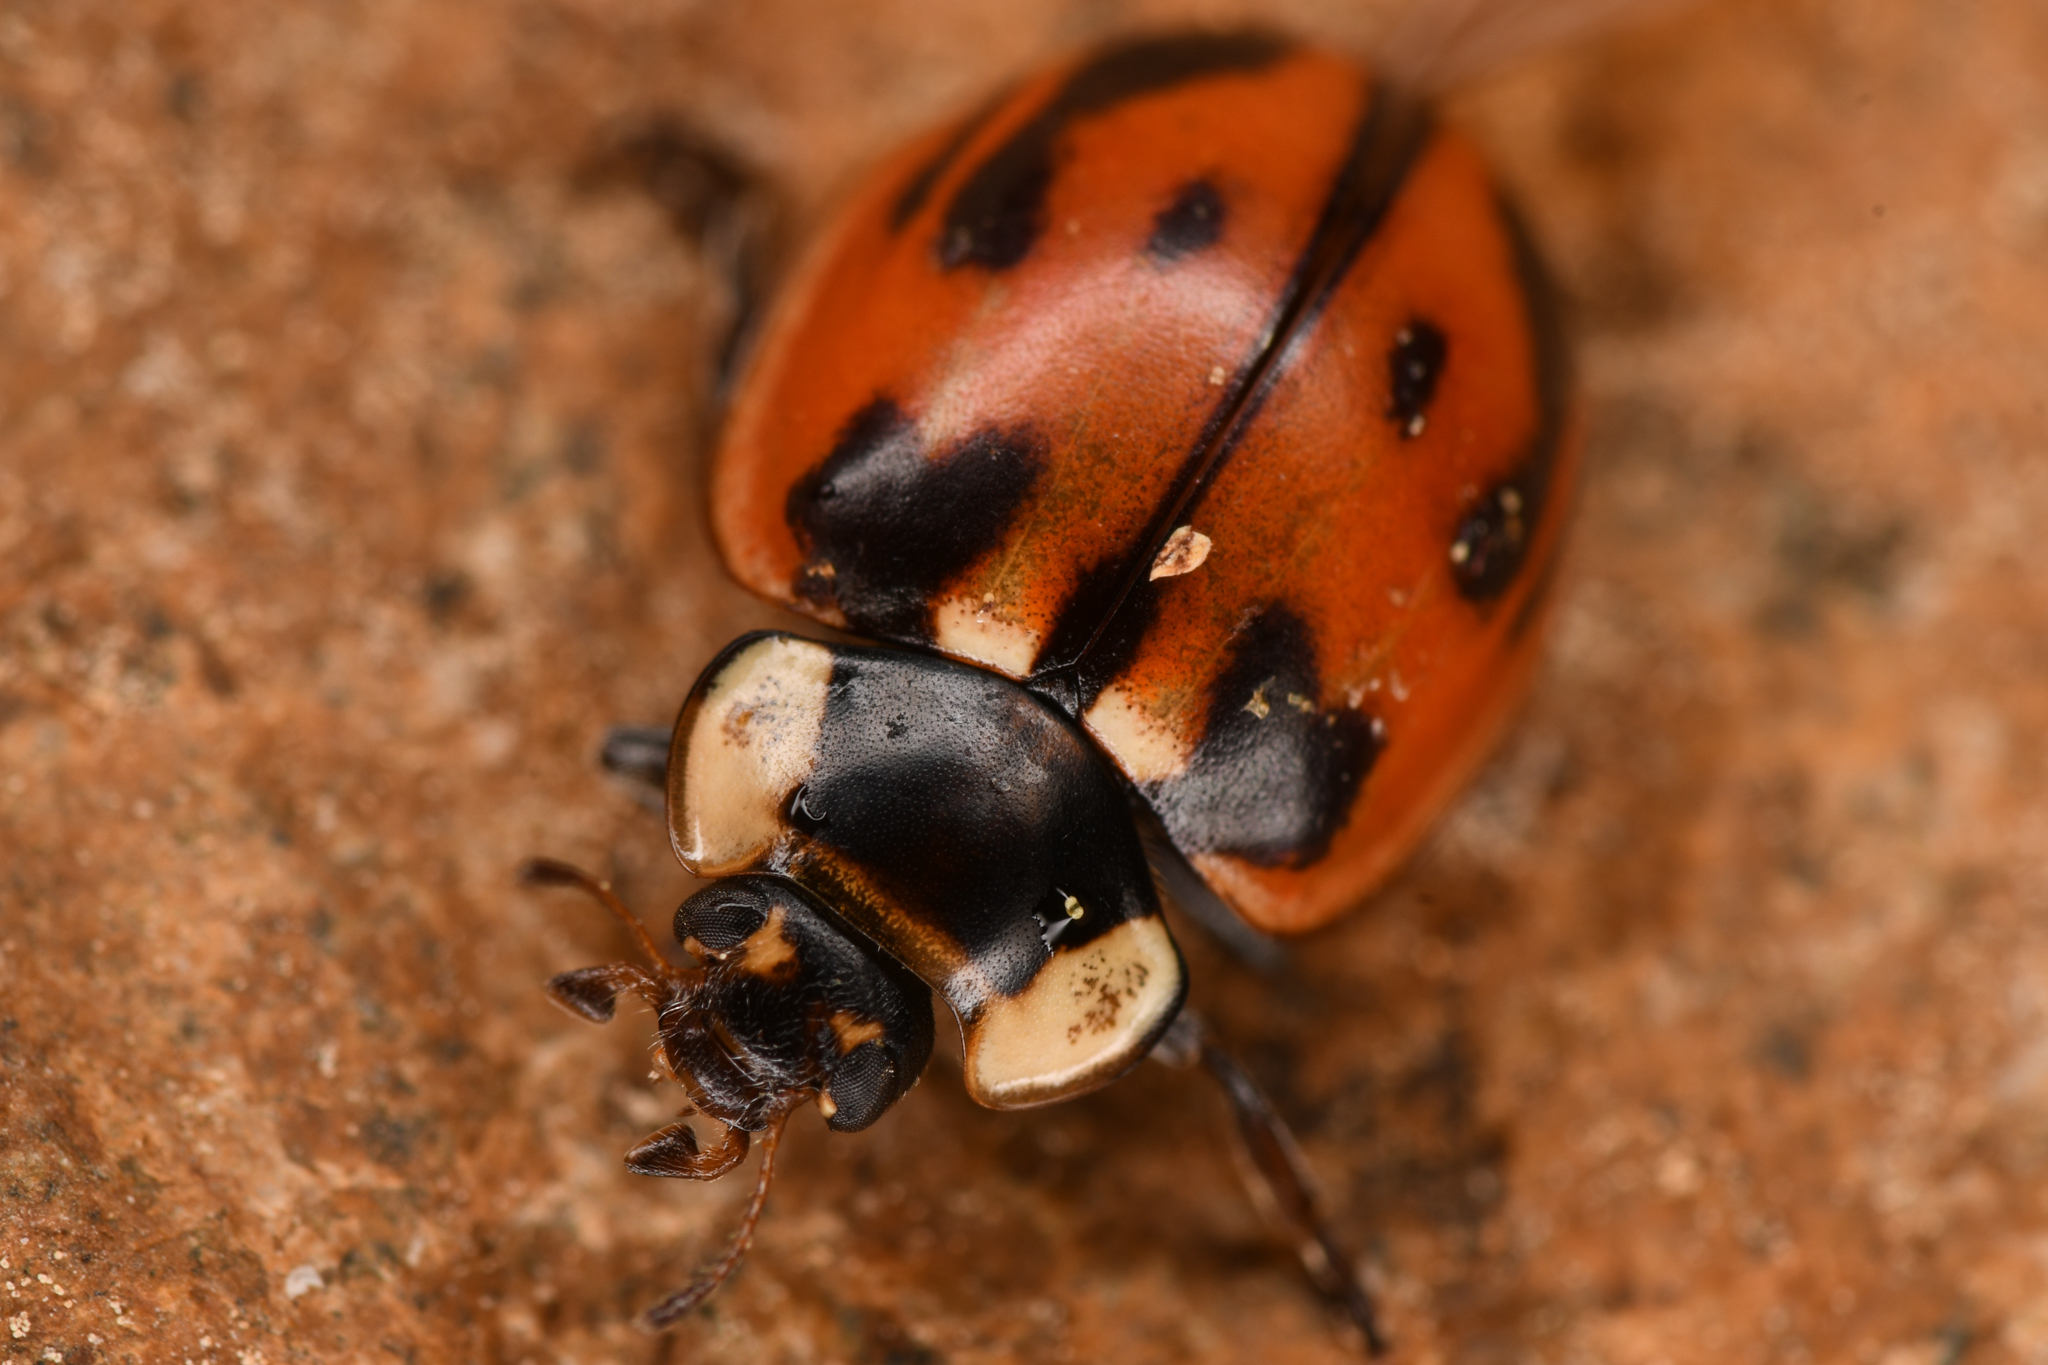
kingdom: Animalia
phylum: Arthropoda
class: Insecta
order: Coleoptera
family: Coccinellidae
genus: Myzia
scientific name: Myzia subvittata
